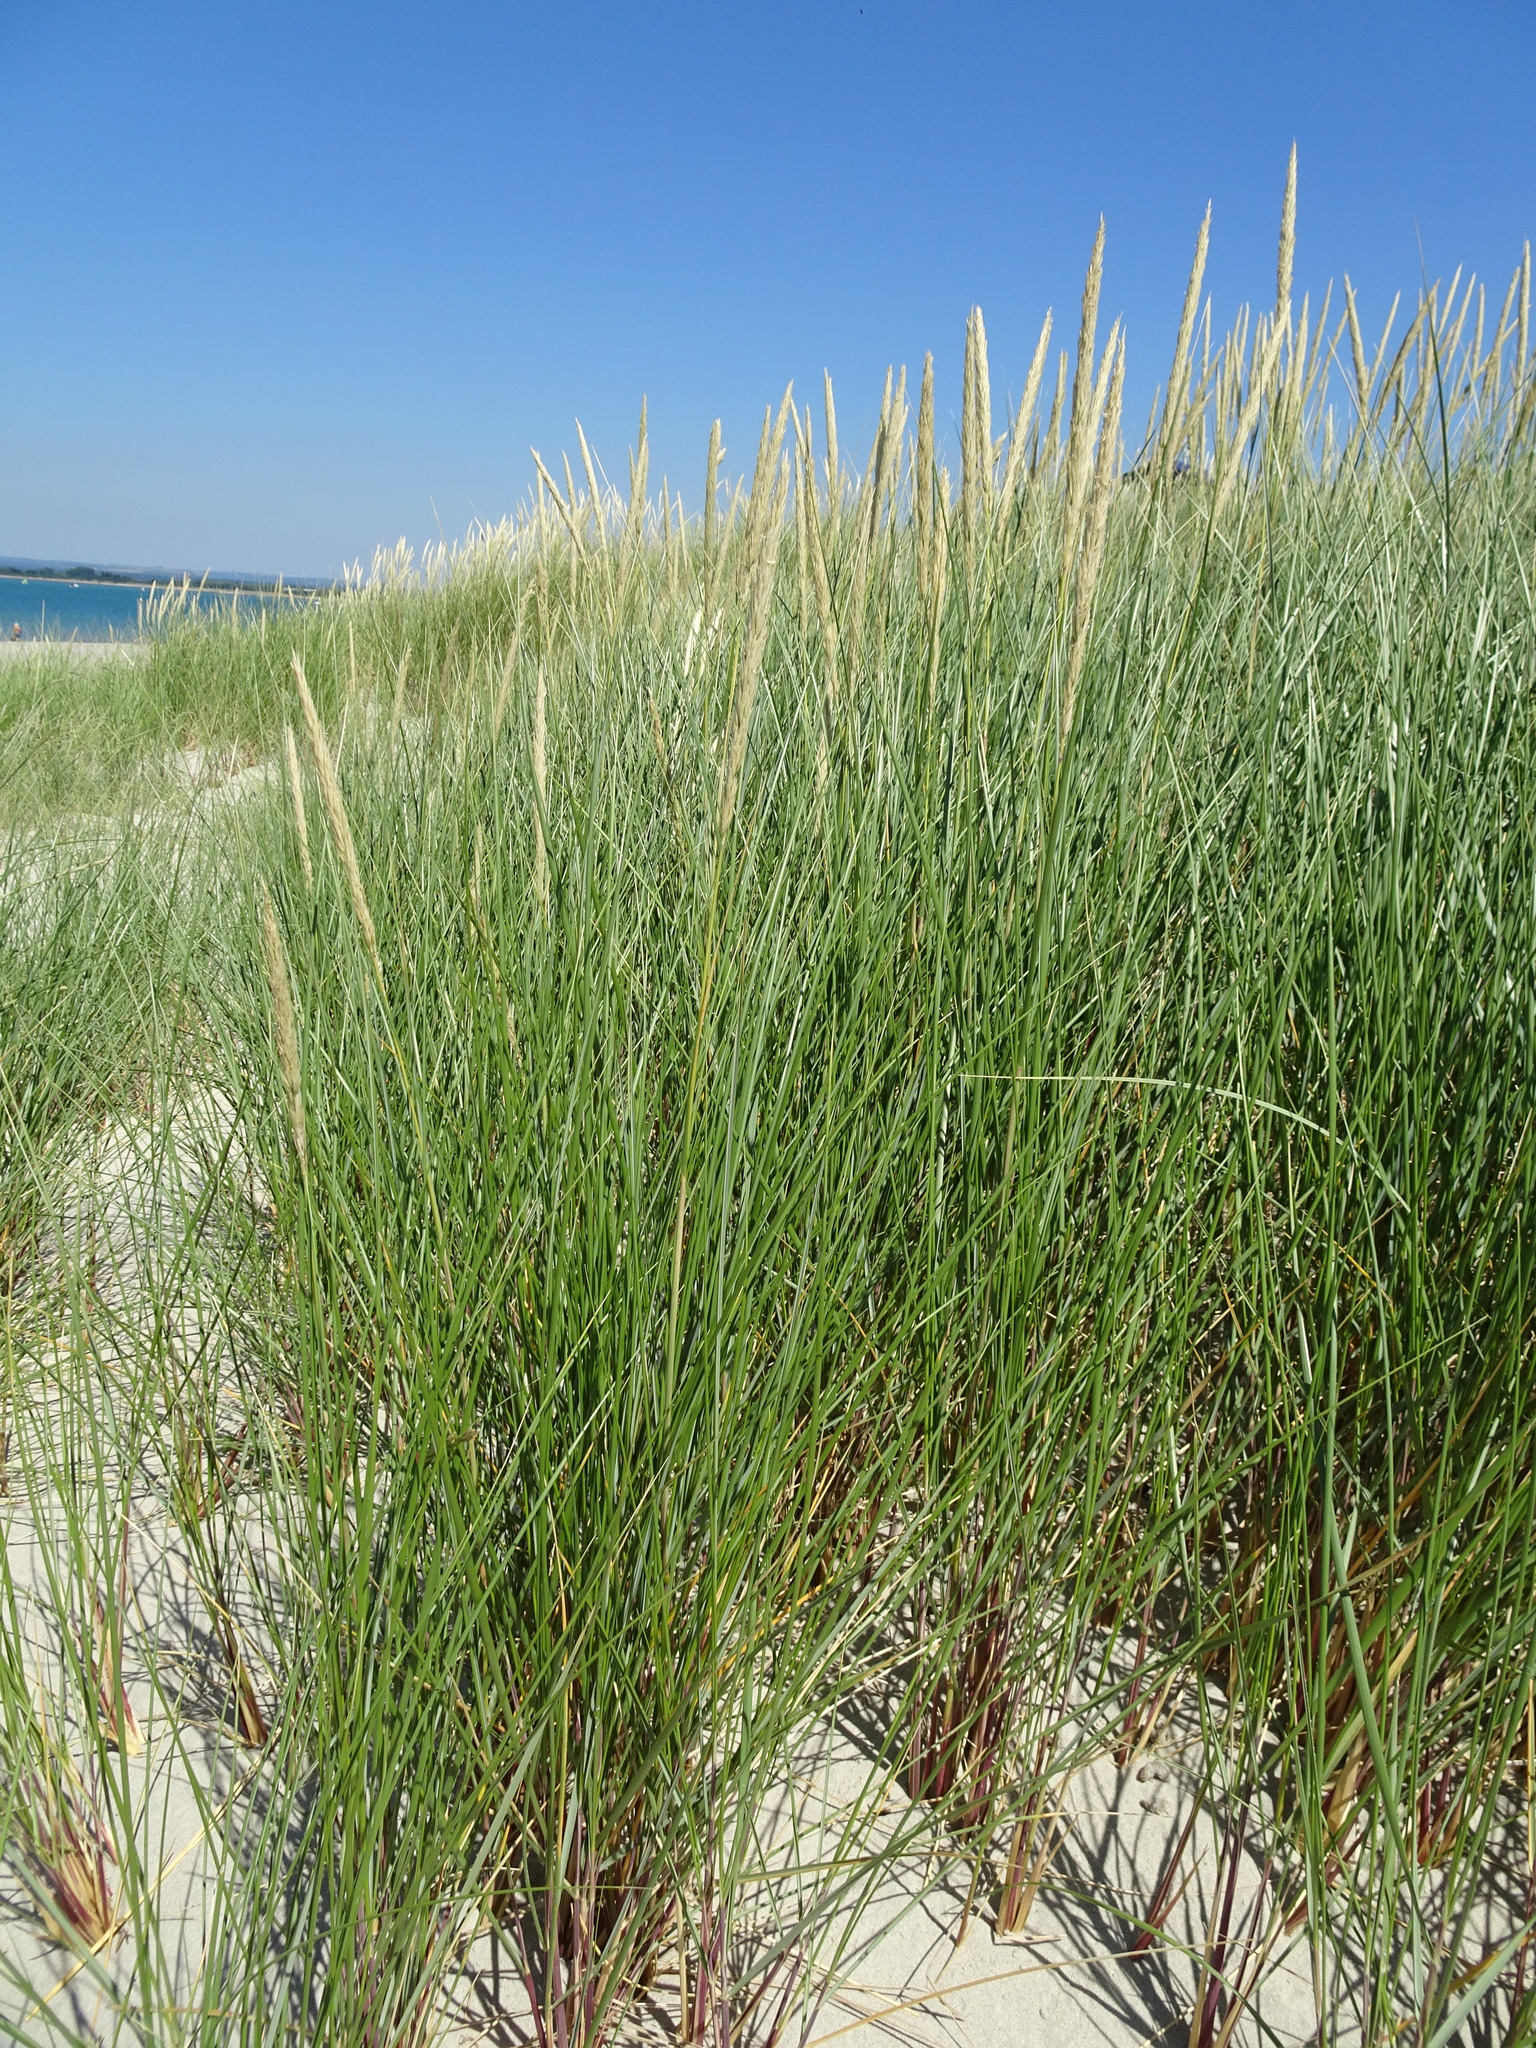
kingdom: Plantae
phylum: Tracheophyta
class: Liliopsida
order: Poales
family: Poaceae
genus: Calamagrostis
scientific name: Calamagrostis arenaria
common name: European beachgrass
